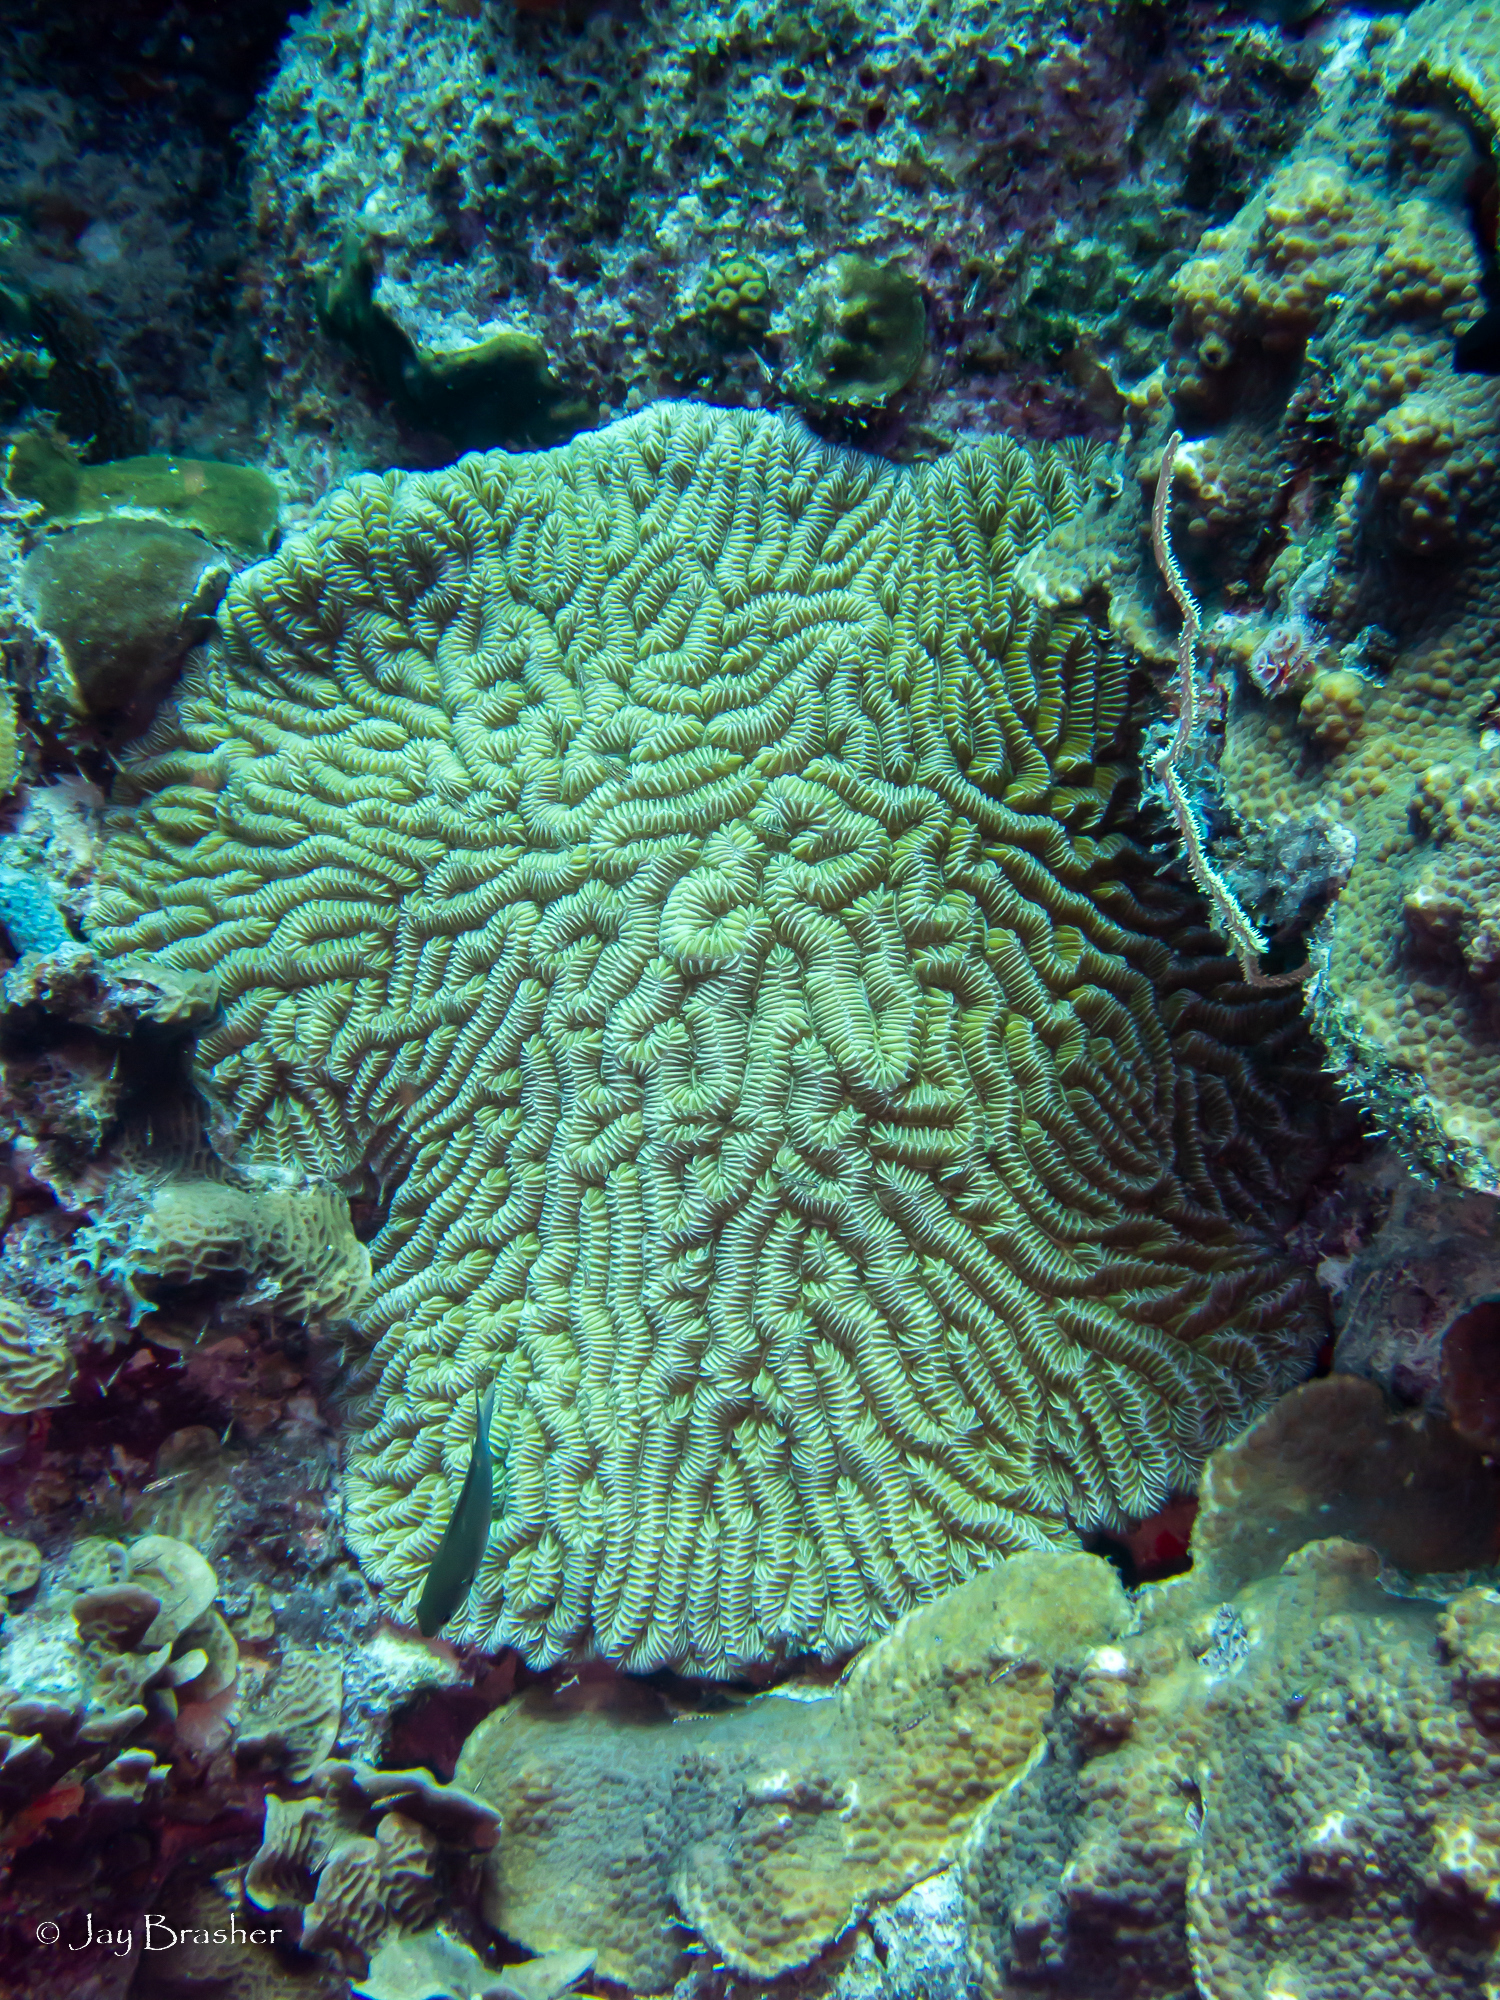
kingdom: Animalia
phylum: Cnidaria
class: Anthozoa
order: Scleractinia
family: Meandrinidae
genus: Meandrina
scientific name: Meandrina meandrites
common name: Maze coral
